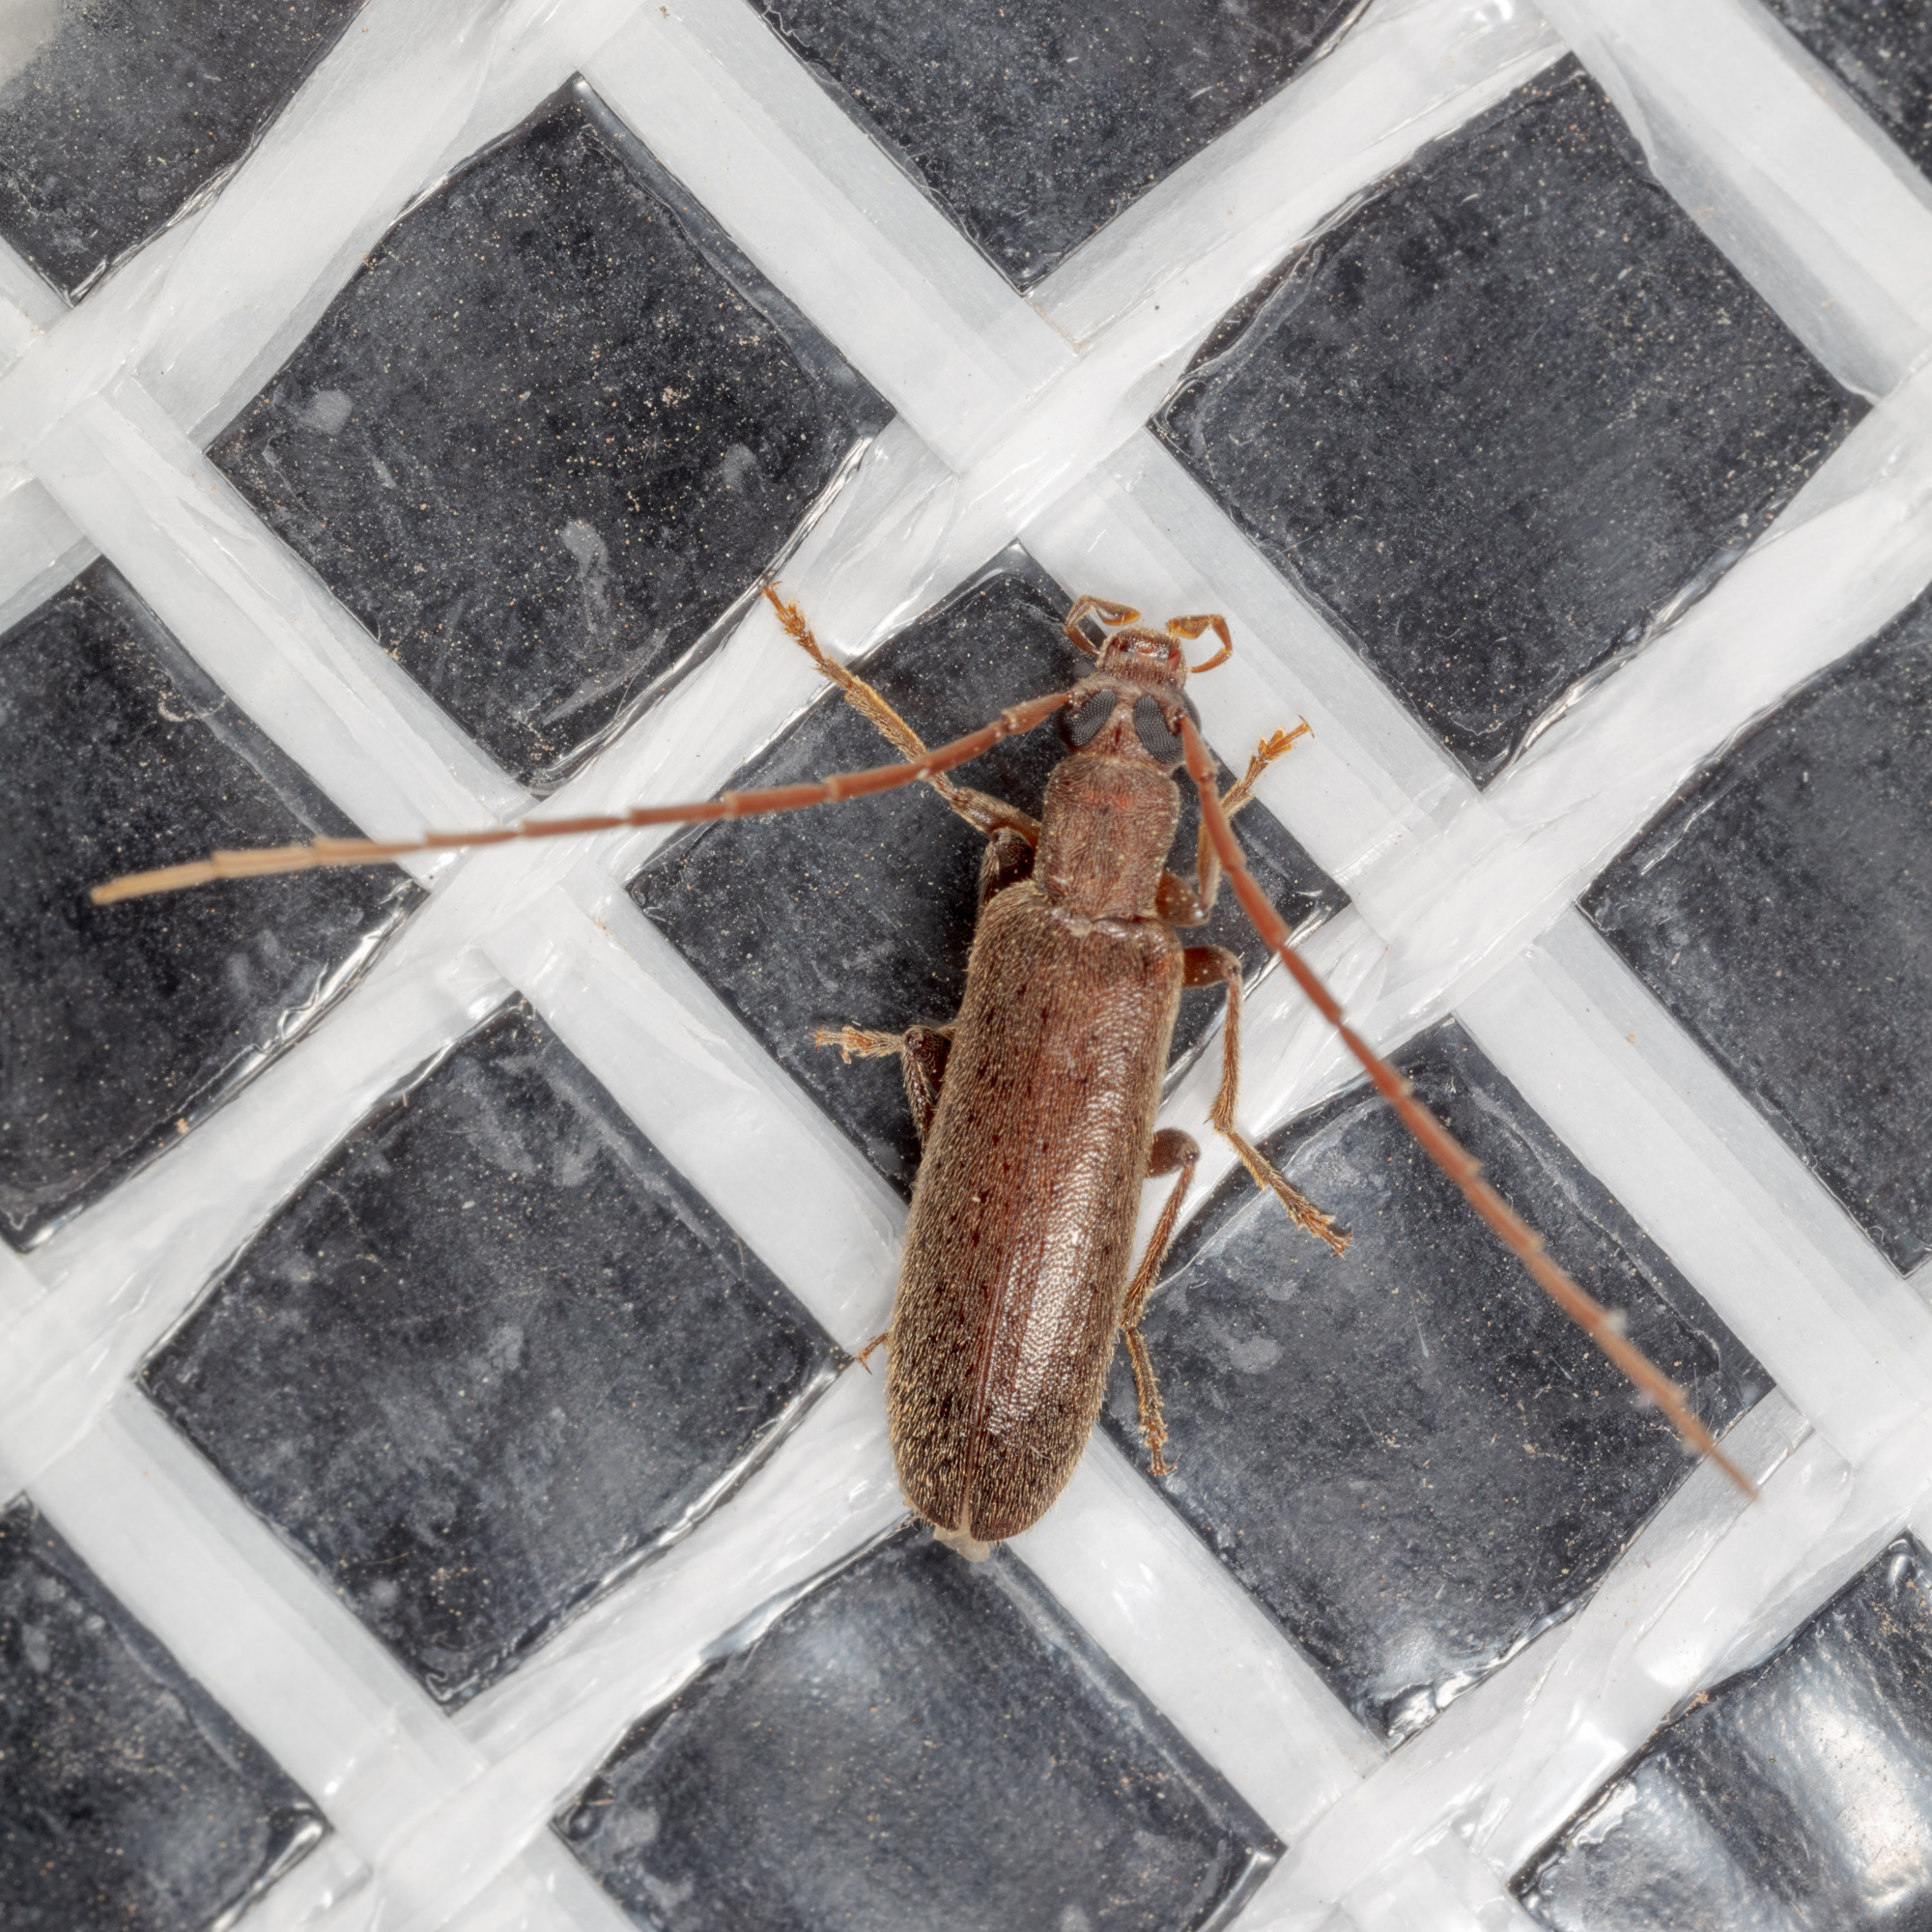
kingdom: Animalia
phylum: Arthropoda
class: Insecta
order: Coleoptera
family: Oedemeridae
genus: Sparedrus
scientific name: Sparedrus aspersus
